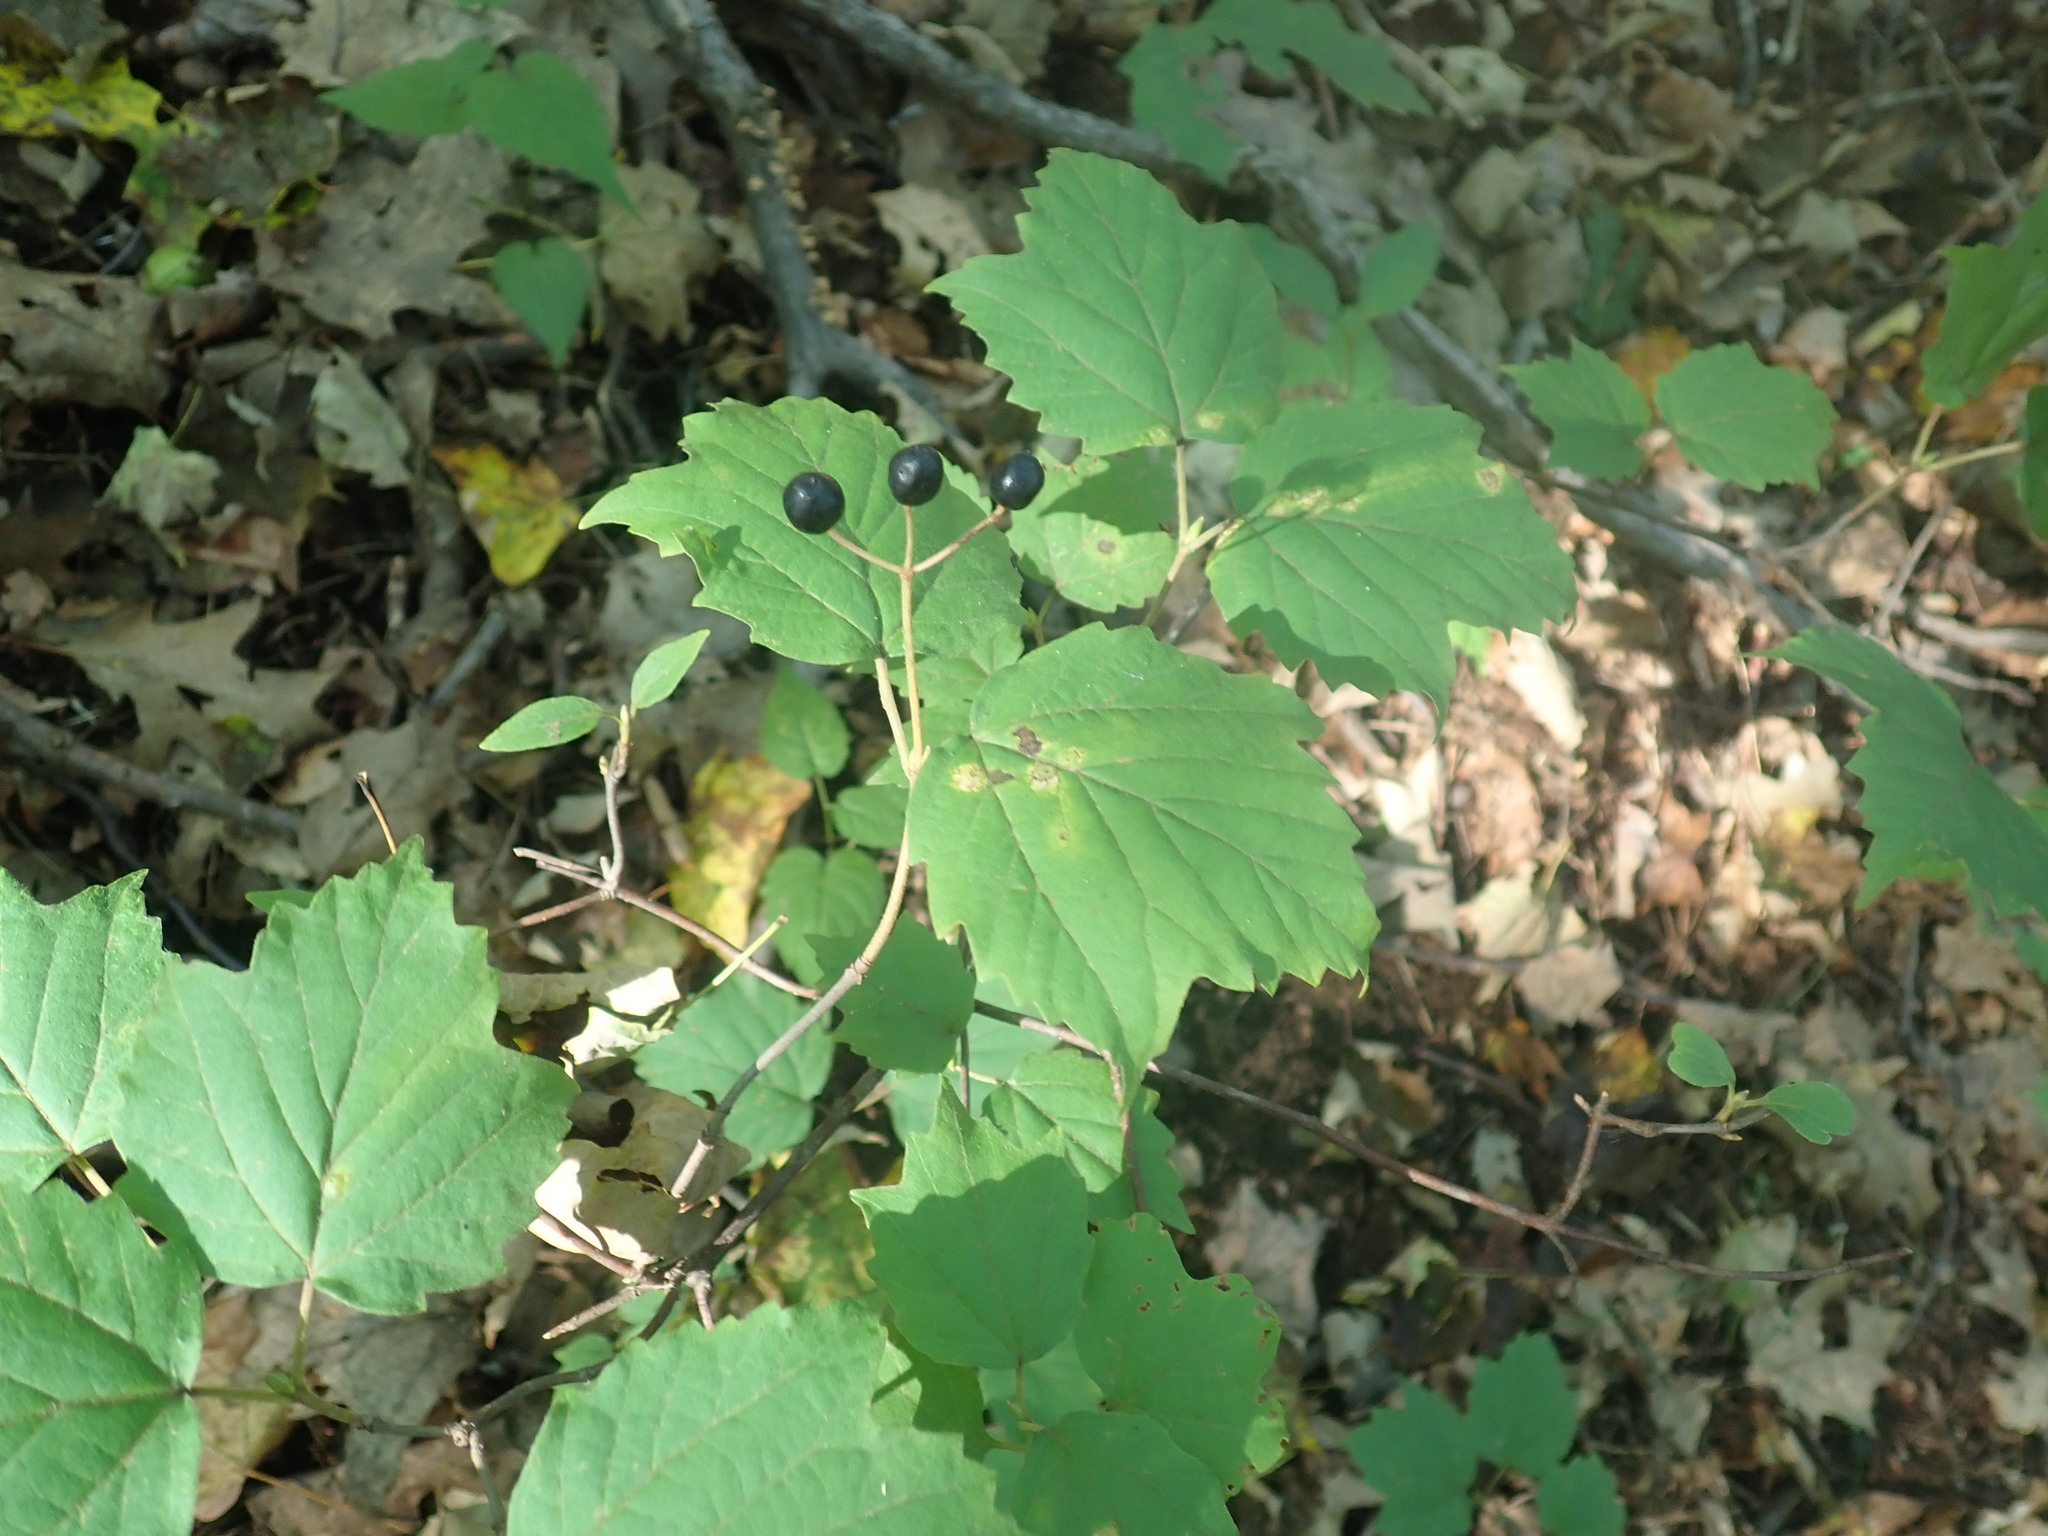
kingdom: Plantae
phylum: Tracheophyta
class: Magnoliopsida
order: Dipsacales
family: Viburnaceae
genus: Viburnum
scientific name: Viburnum acerifolium
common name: Dockmackie
